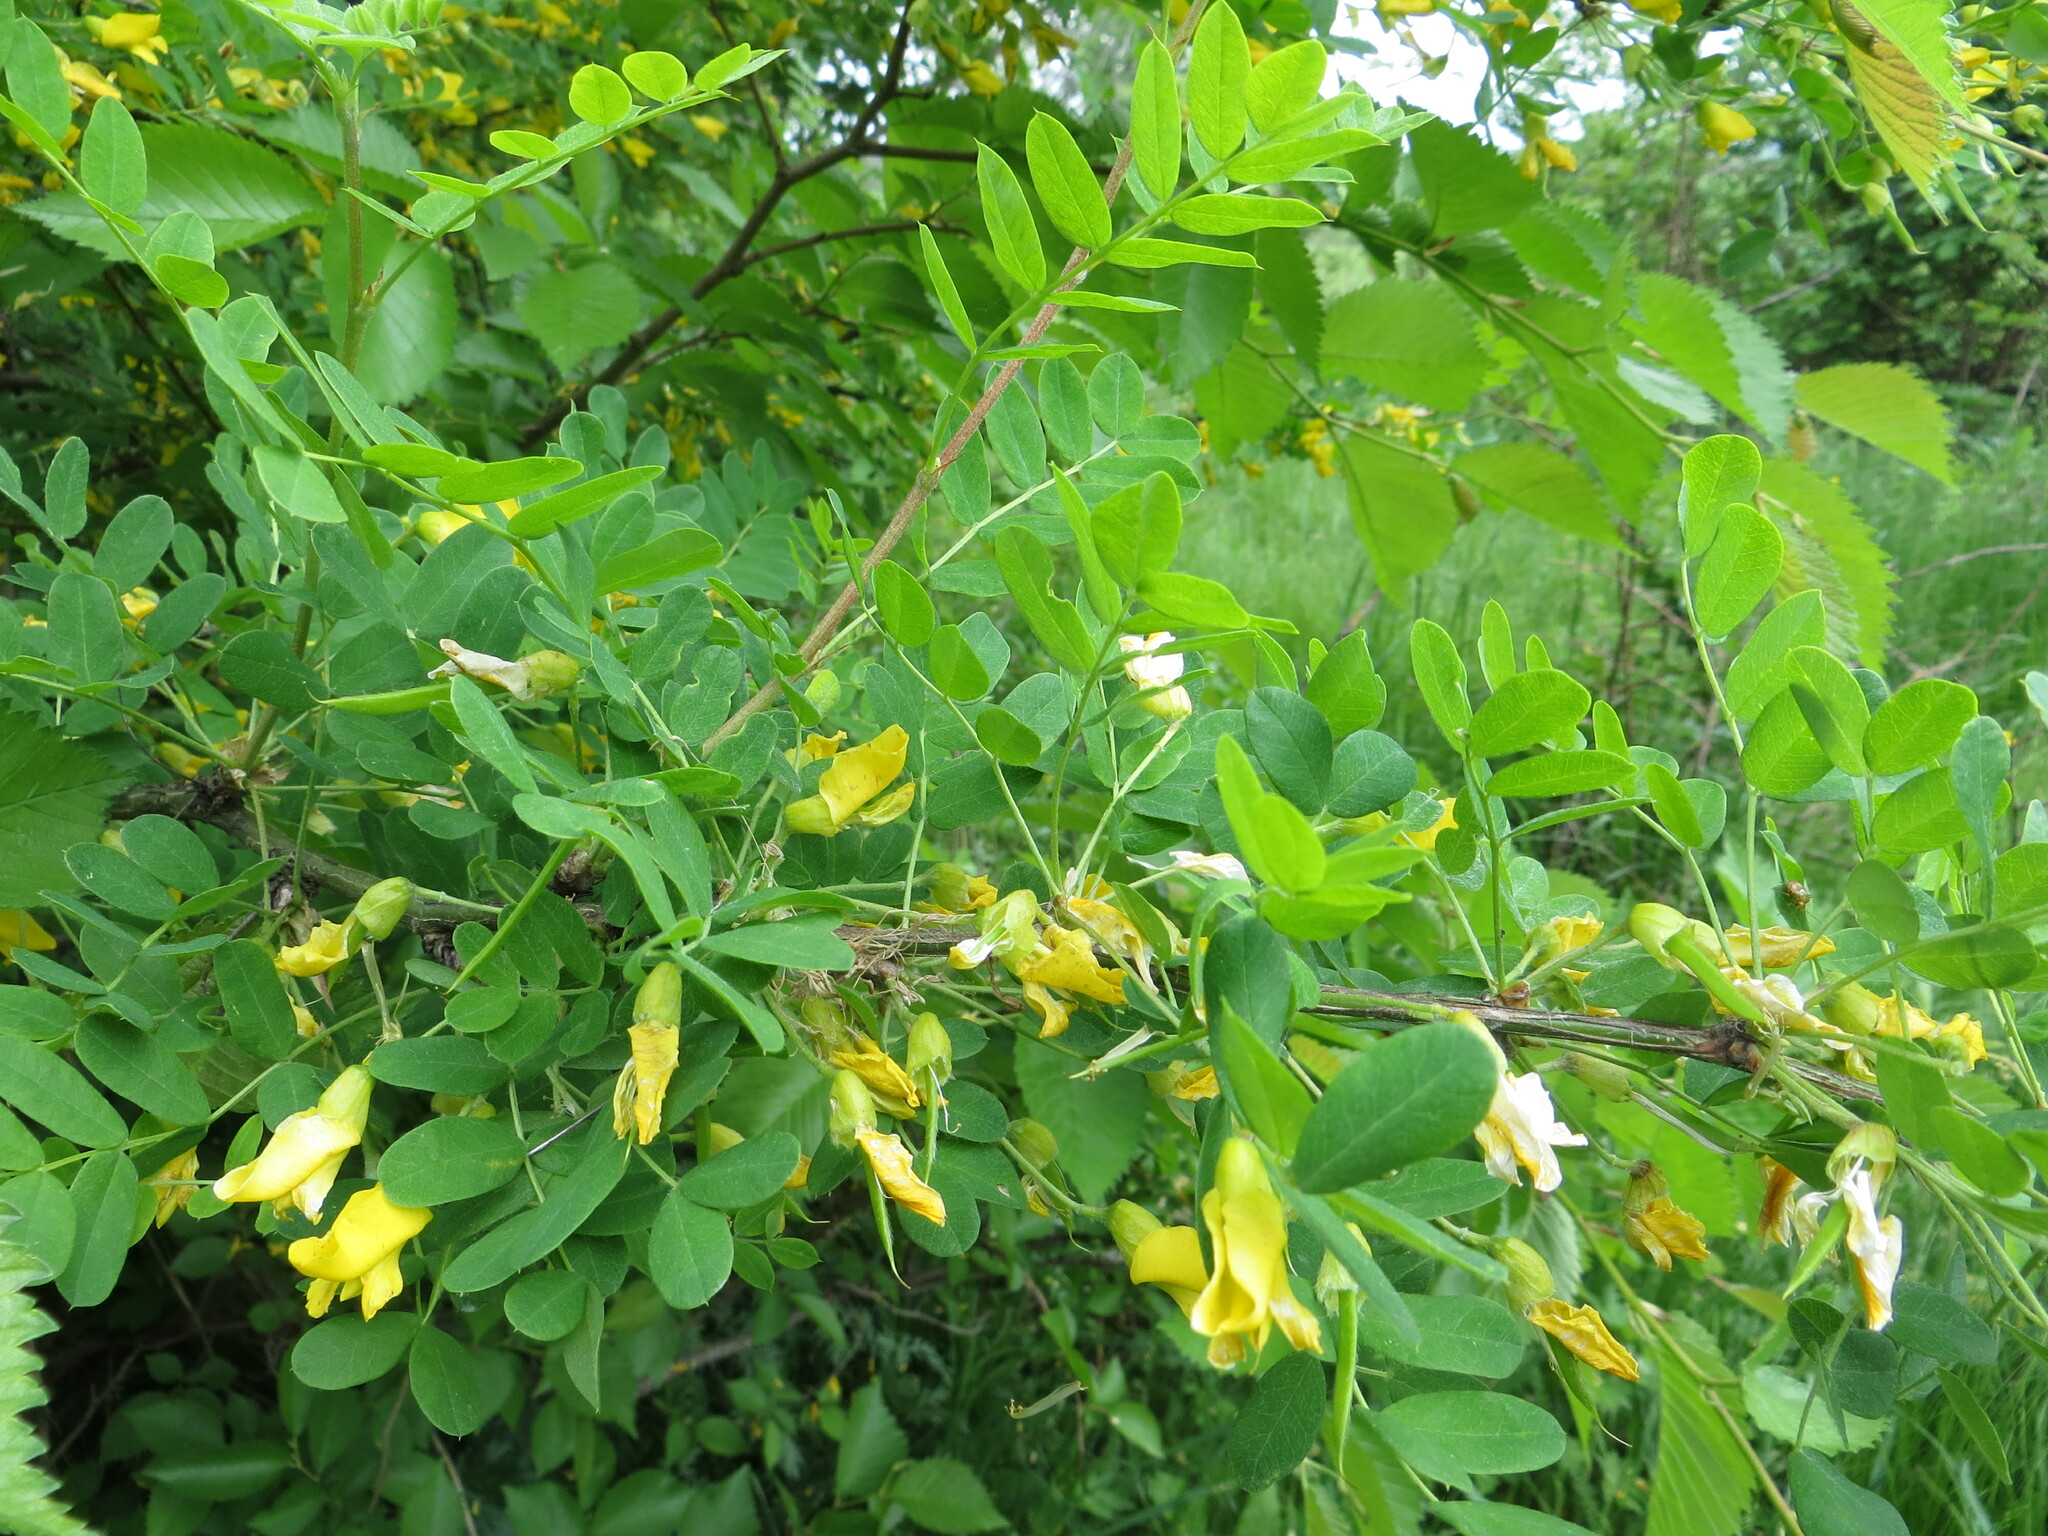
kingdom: Plantae
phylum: Tracheophyta
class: Magnoliopsida
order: Fabales
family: Fabaceae
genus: Caragana
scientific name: Caragana arborescens
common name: Siberian peashrub
